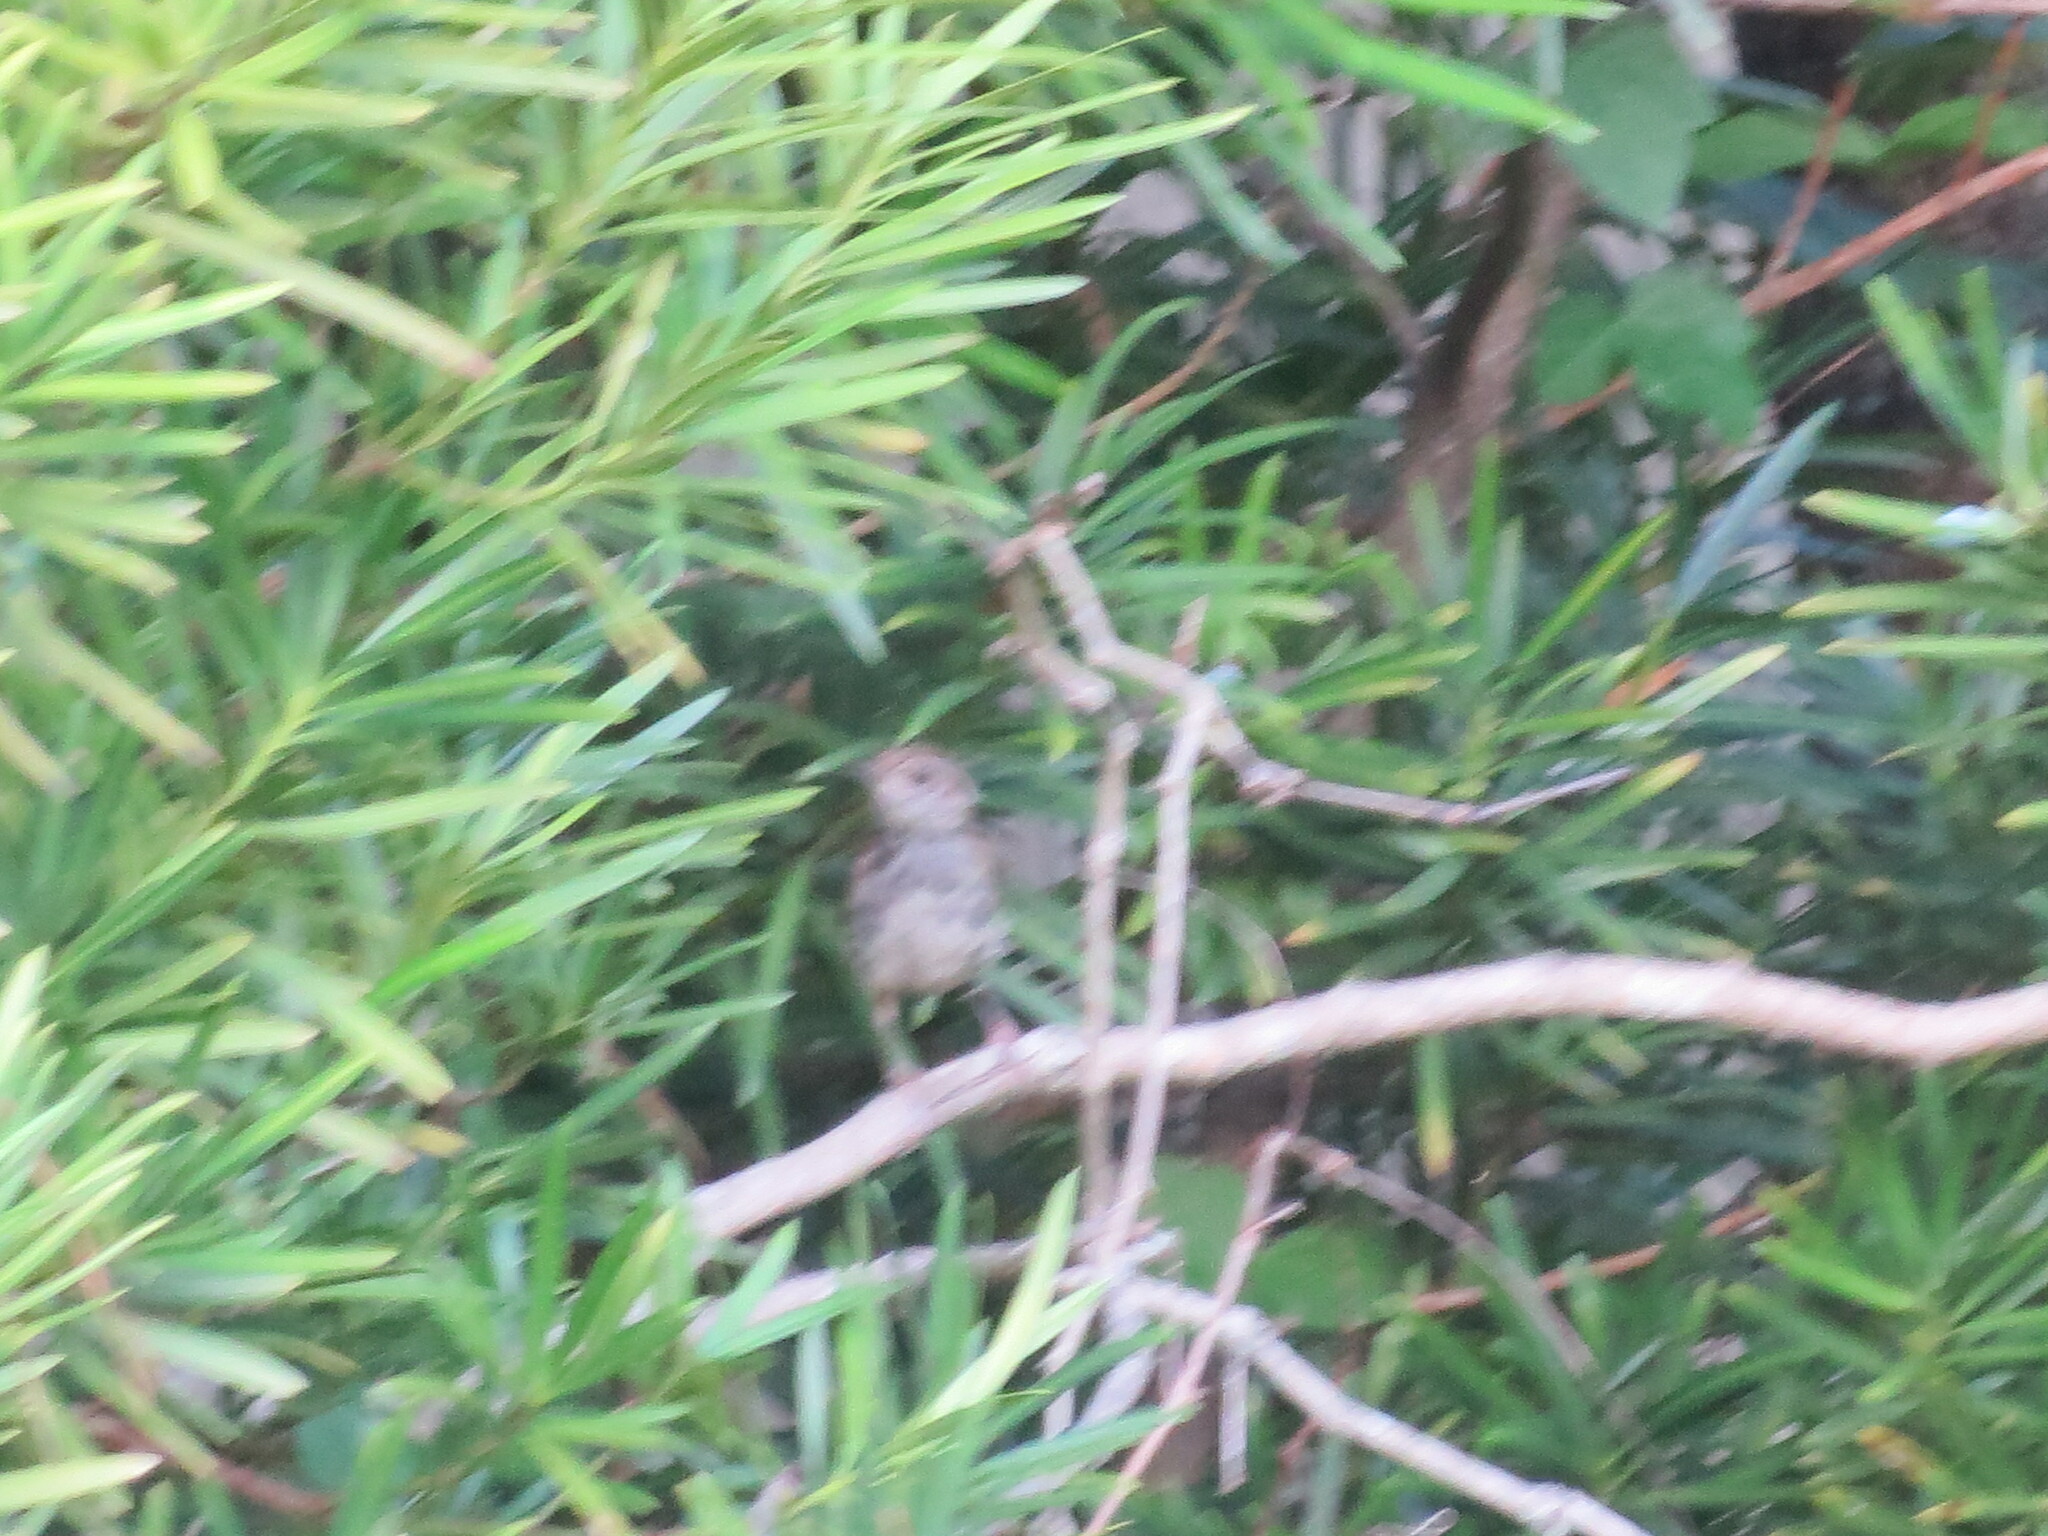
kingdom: Animalia
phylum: Chordata
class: Aves
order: Passeriformes
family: Troglodytidae
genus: Thryothorus
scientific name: Thryothorus ludovicianus
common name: Carolina wren
